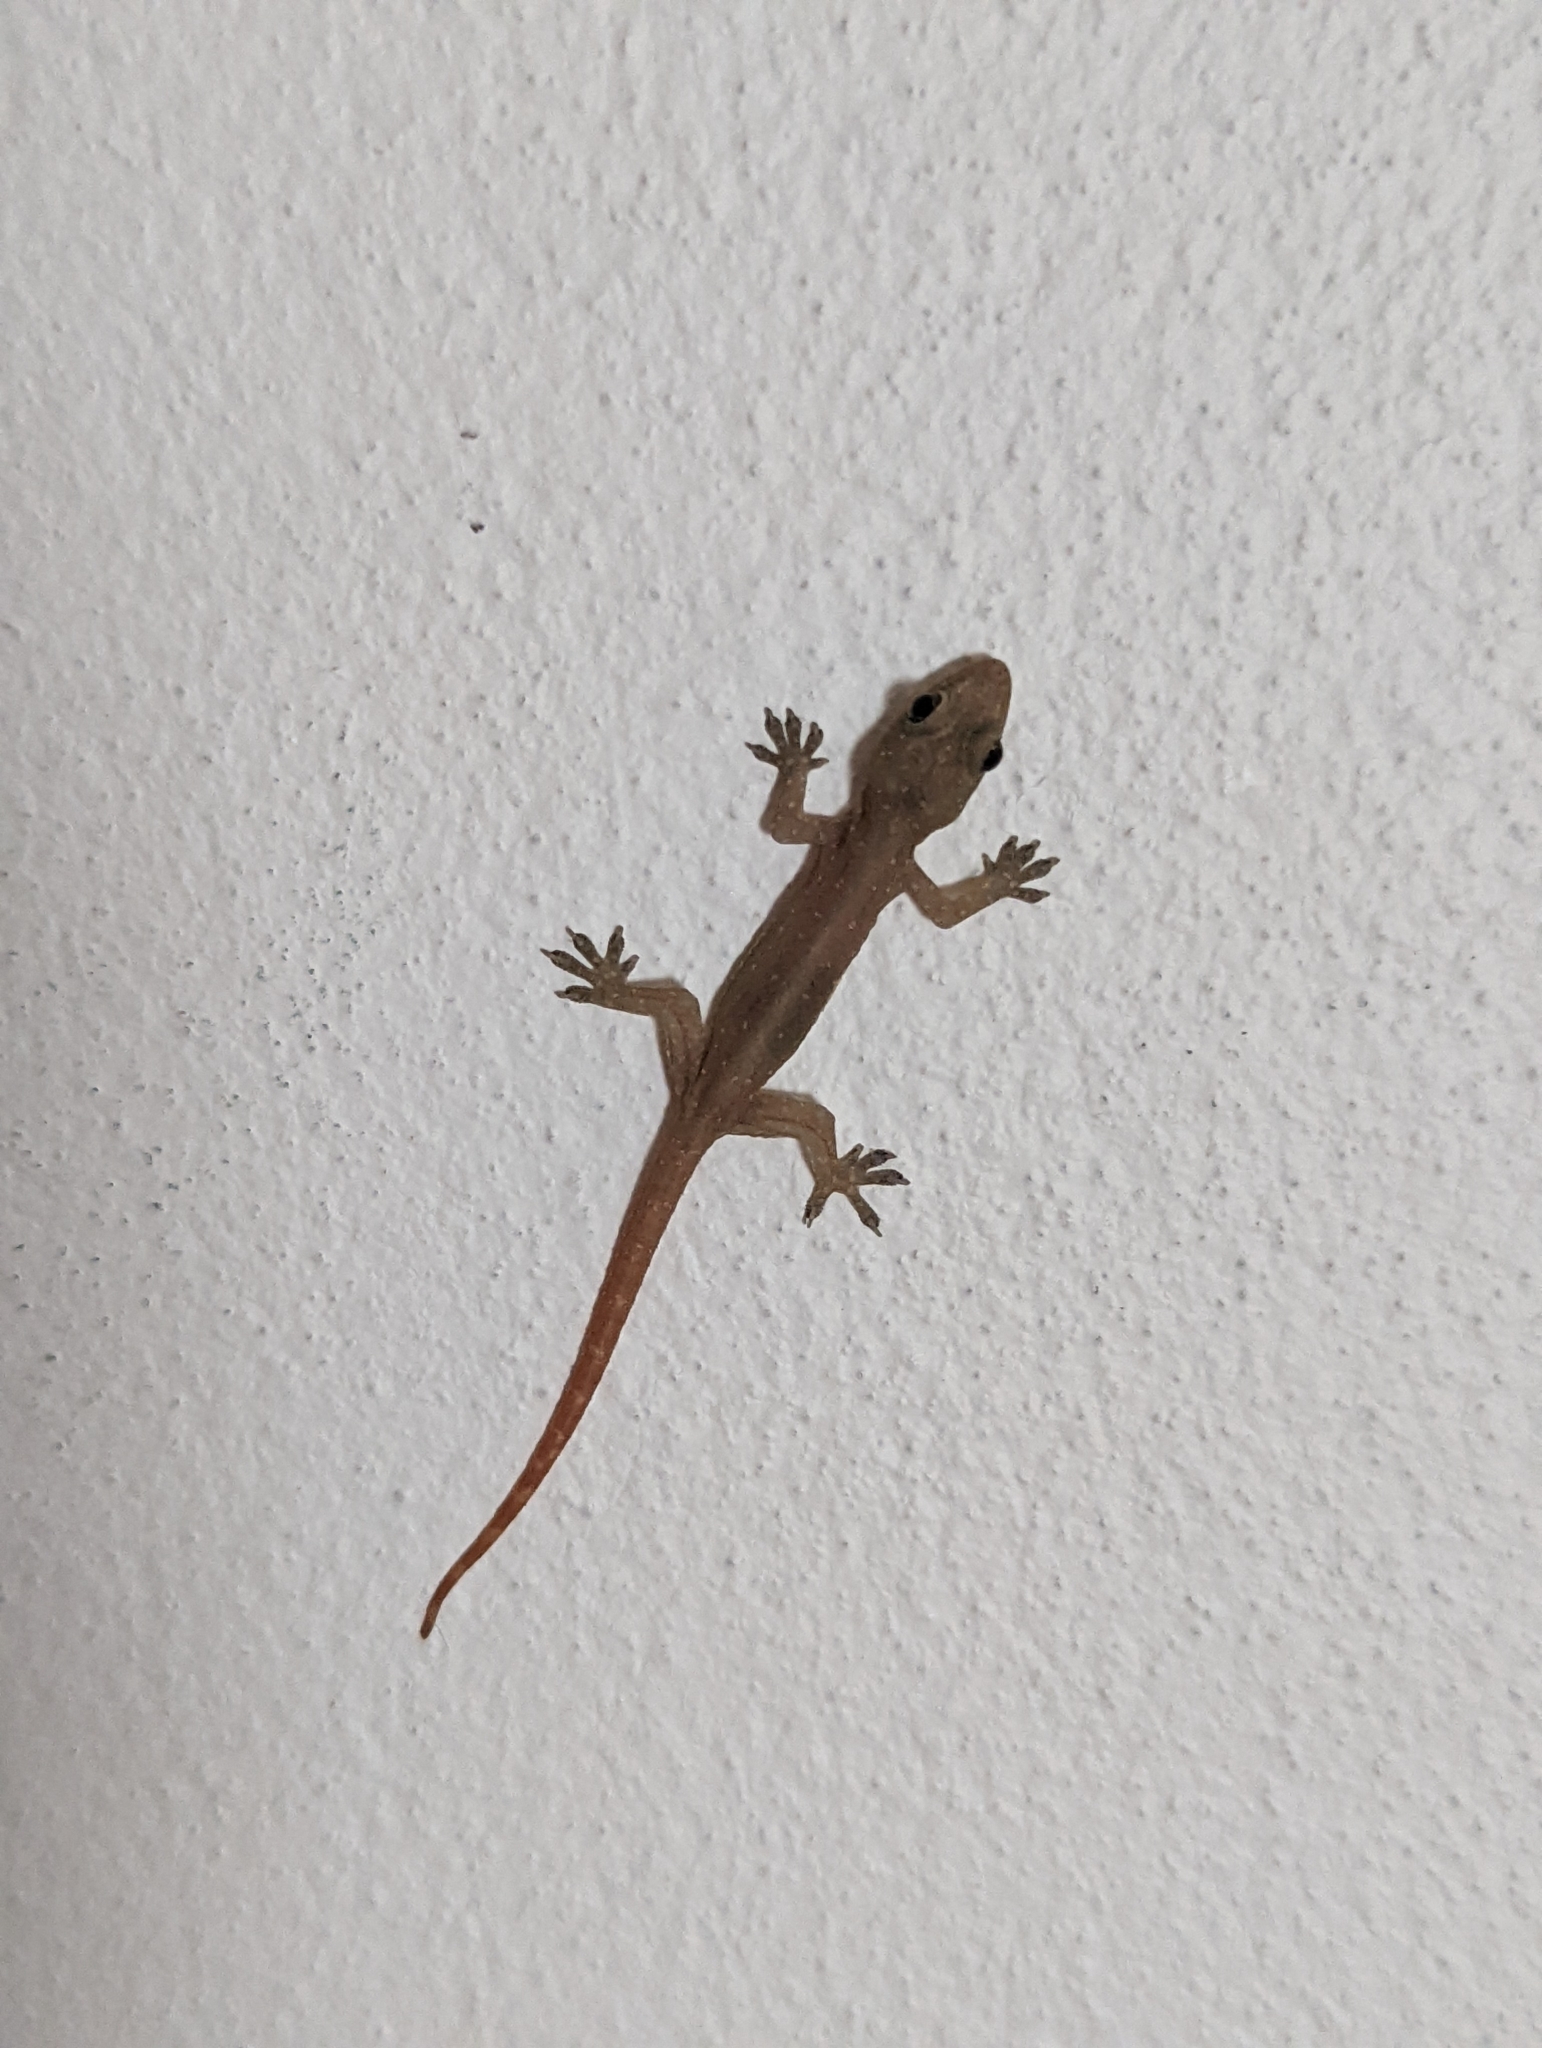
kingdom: Animalia
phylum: Chordata
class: Squamata
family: Gekkonidae
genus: Hemidactylus
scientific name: Hemidactylus garnotii
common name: Indo-pacific gecko
